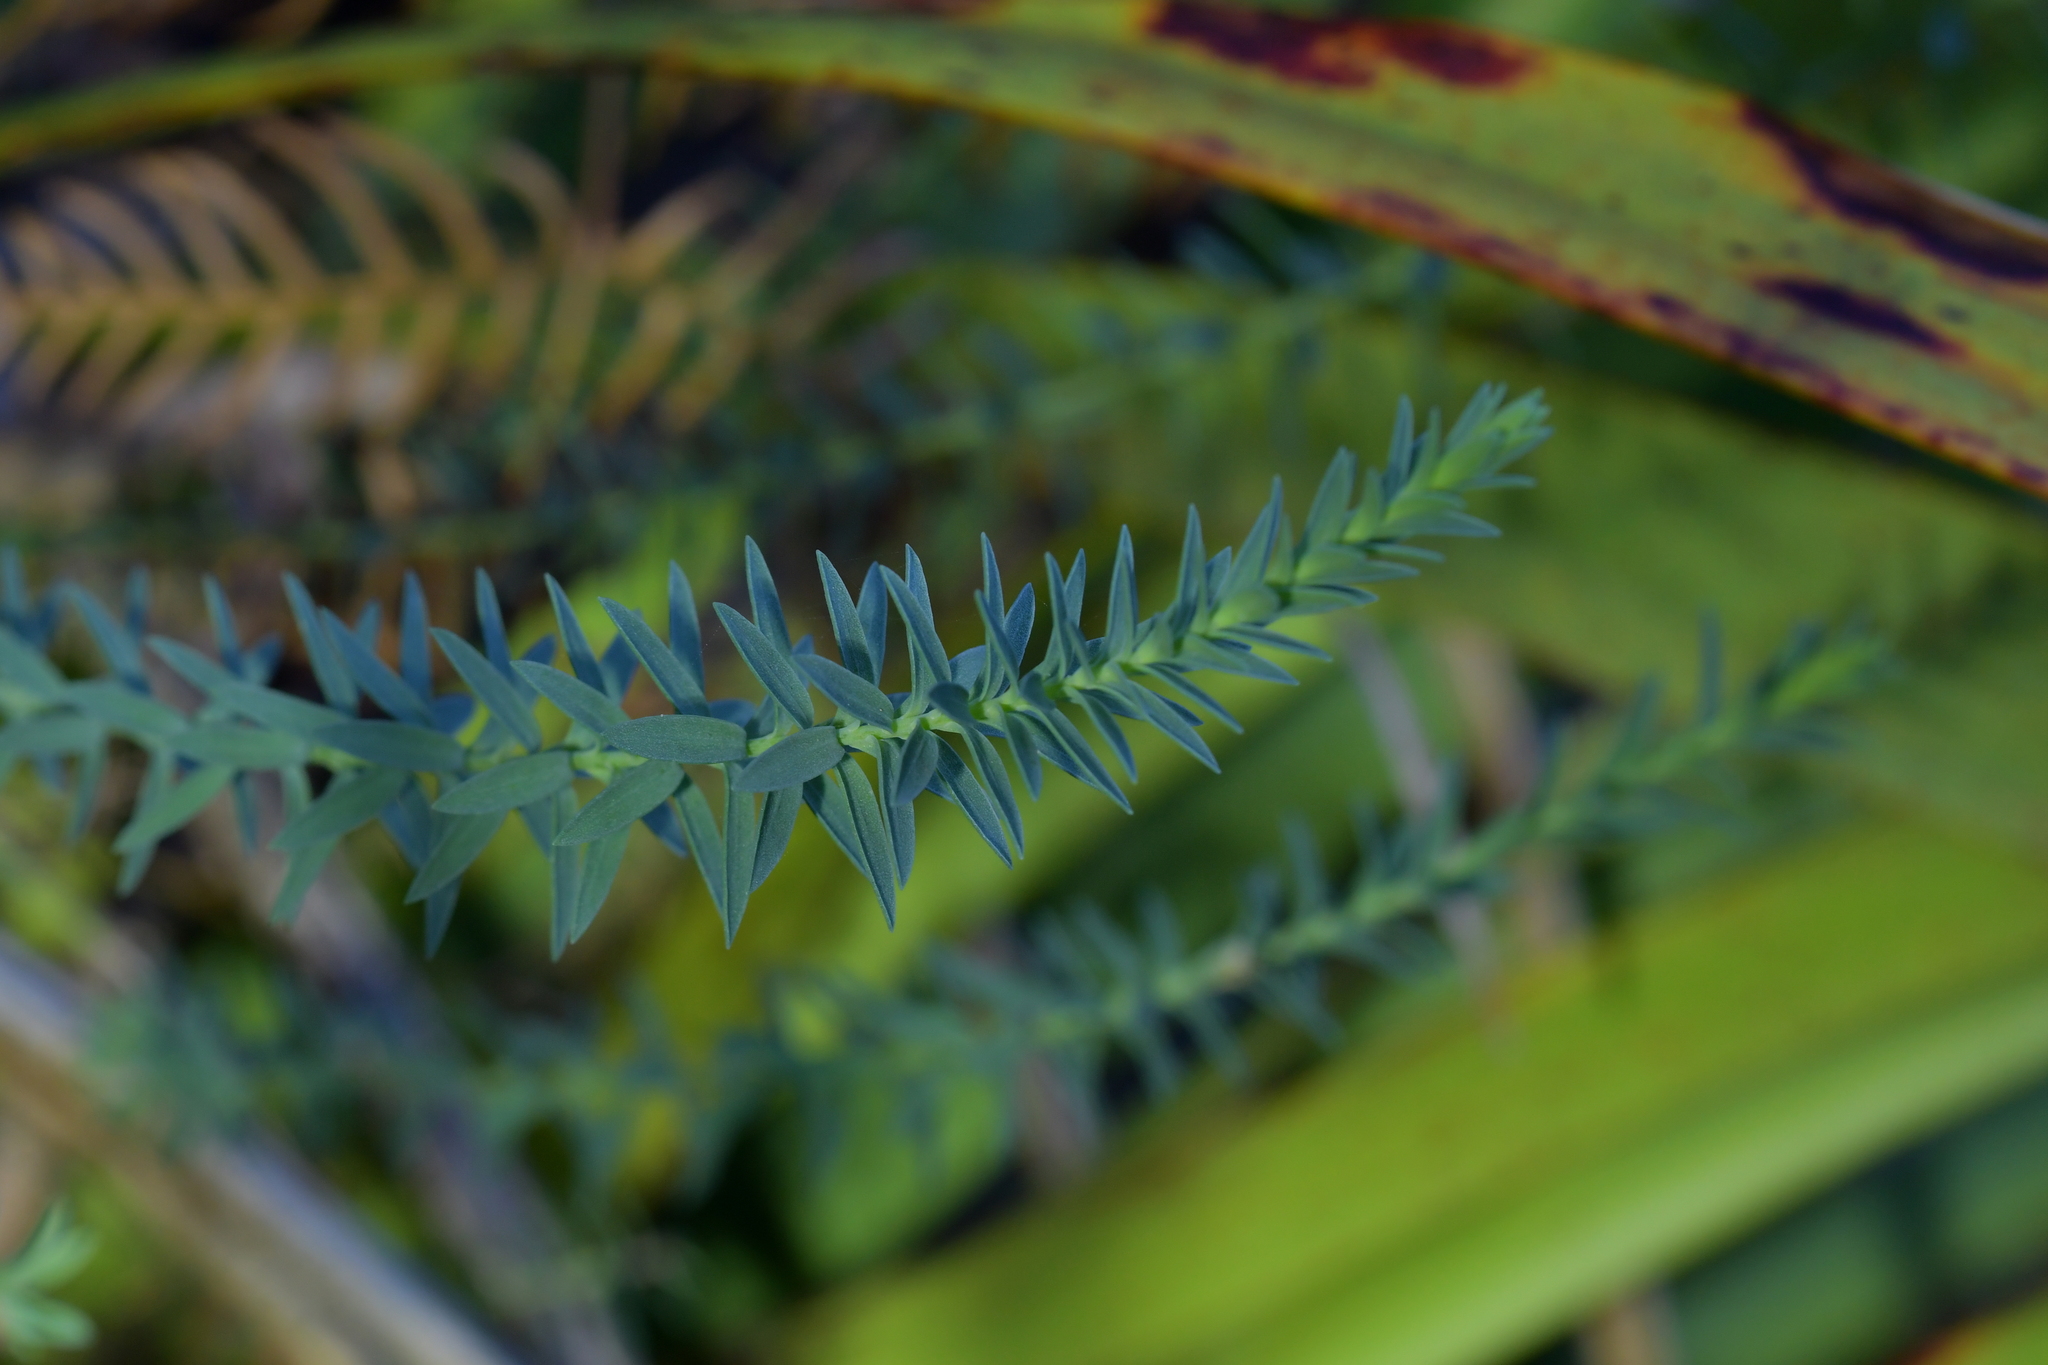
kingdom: Plantae
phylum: Tracheophyta
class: Magnoliopsida
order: Malpighiales
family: Linaceae
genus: Linum
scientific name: Linum monogynum
